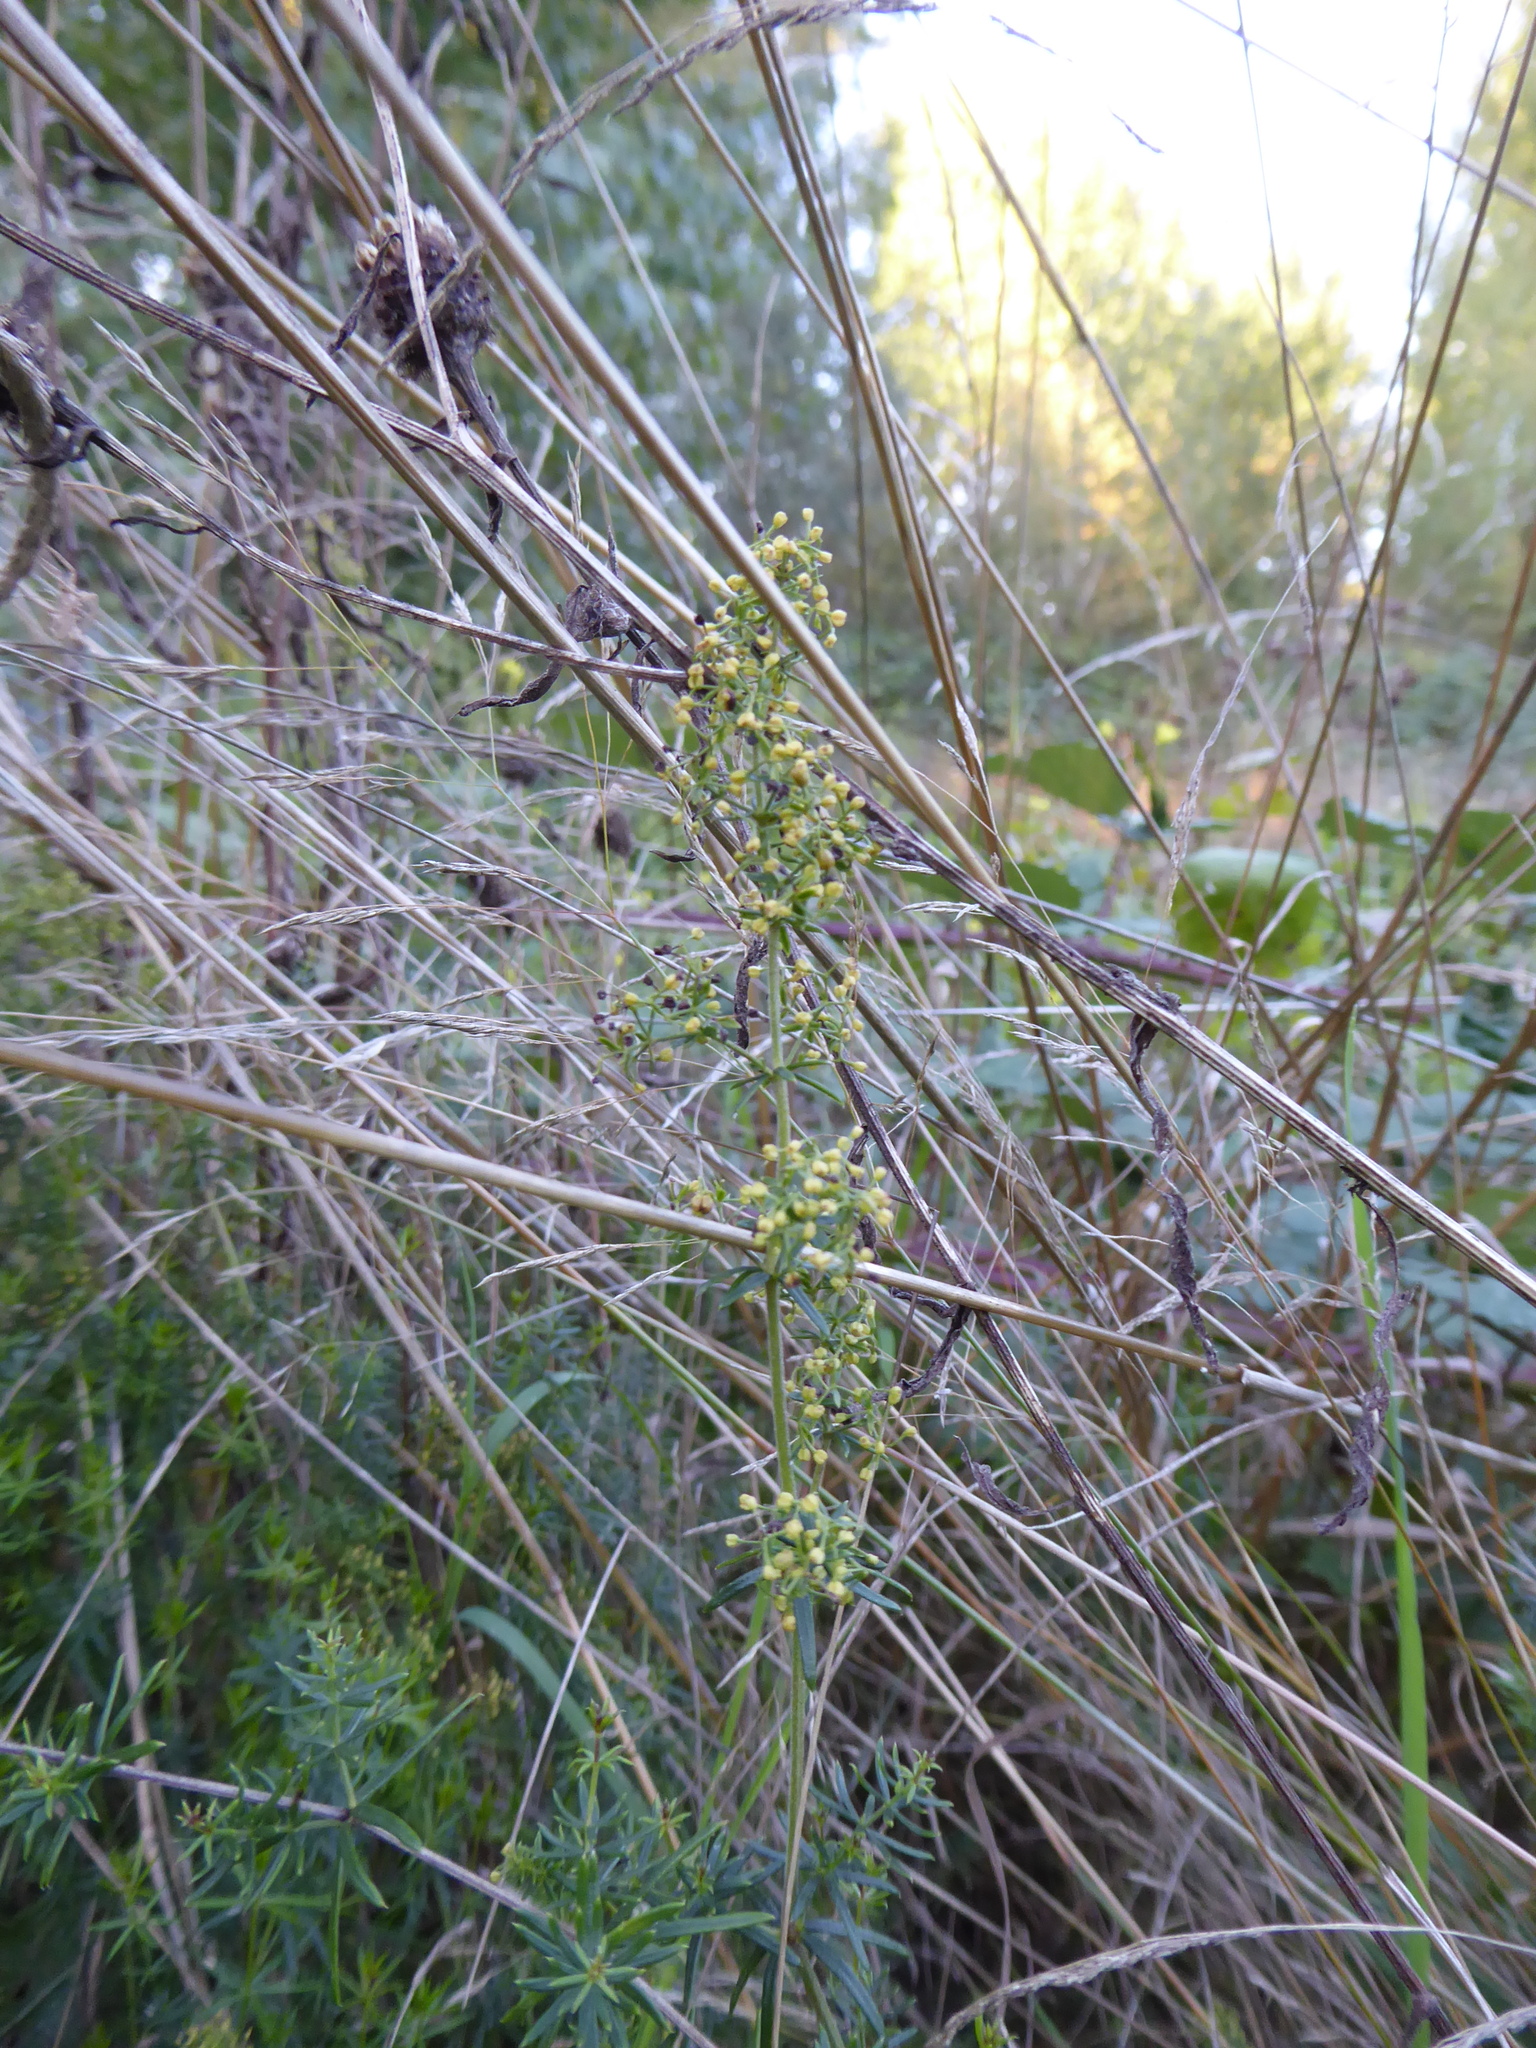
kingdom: Plantae
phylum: Tracheophyta
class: Magnoliopsida
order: Gentianales
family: Rubiaceae
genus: Galium
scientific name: Galium verum
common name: Lady's bedstraw
